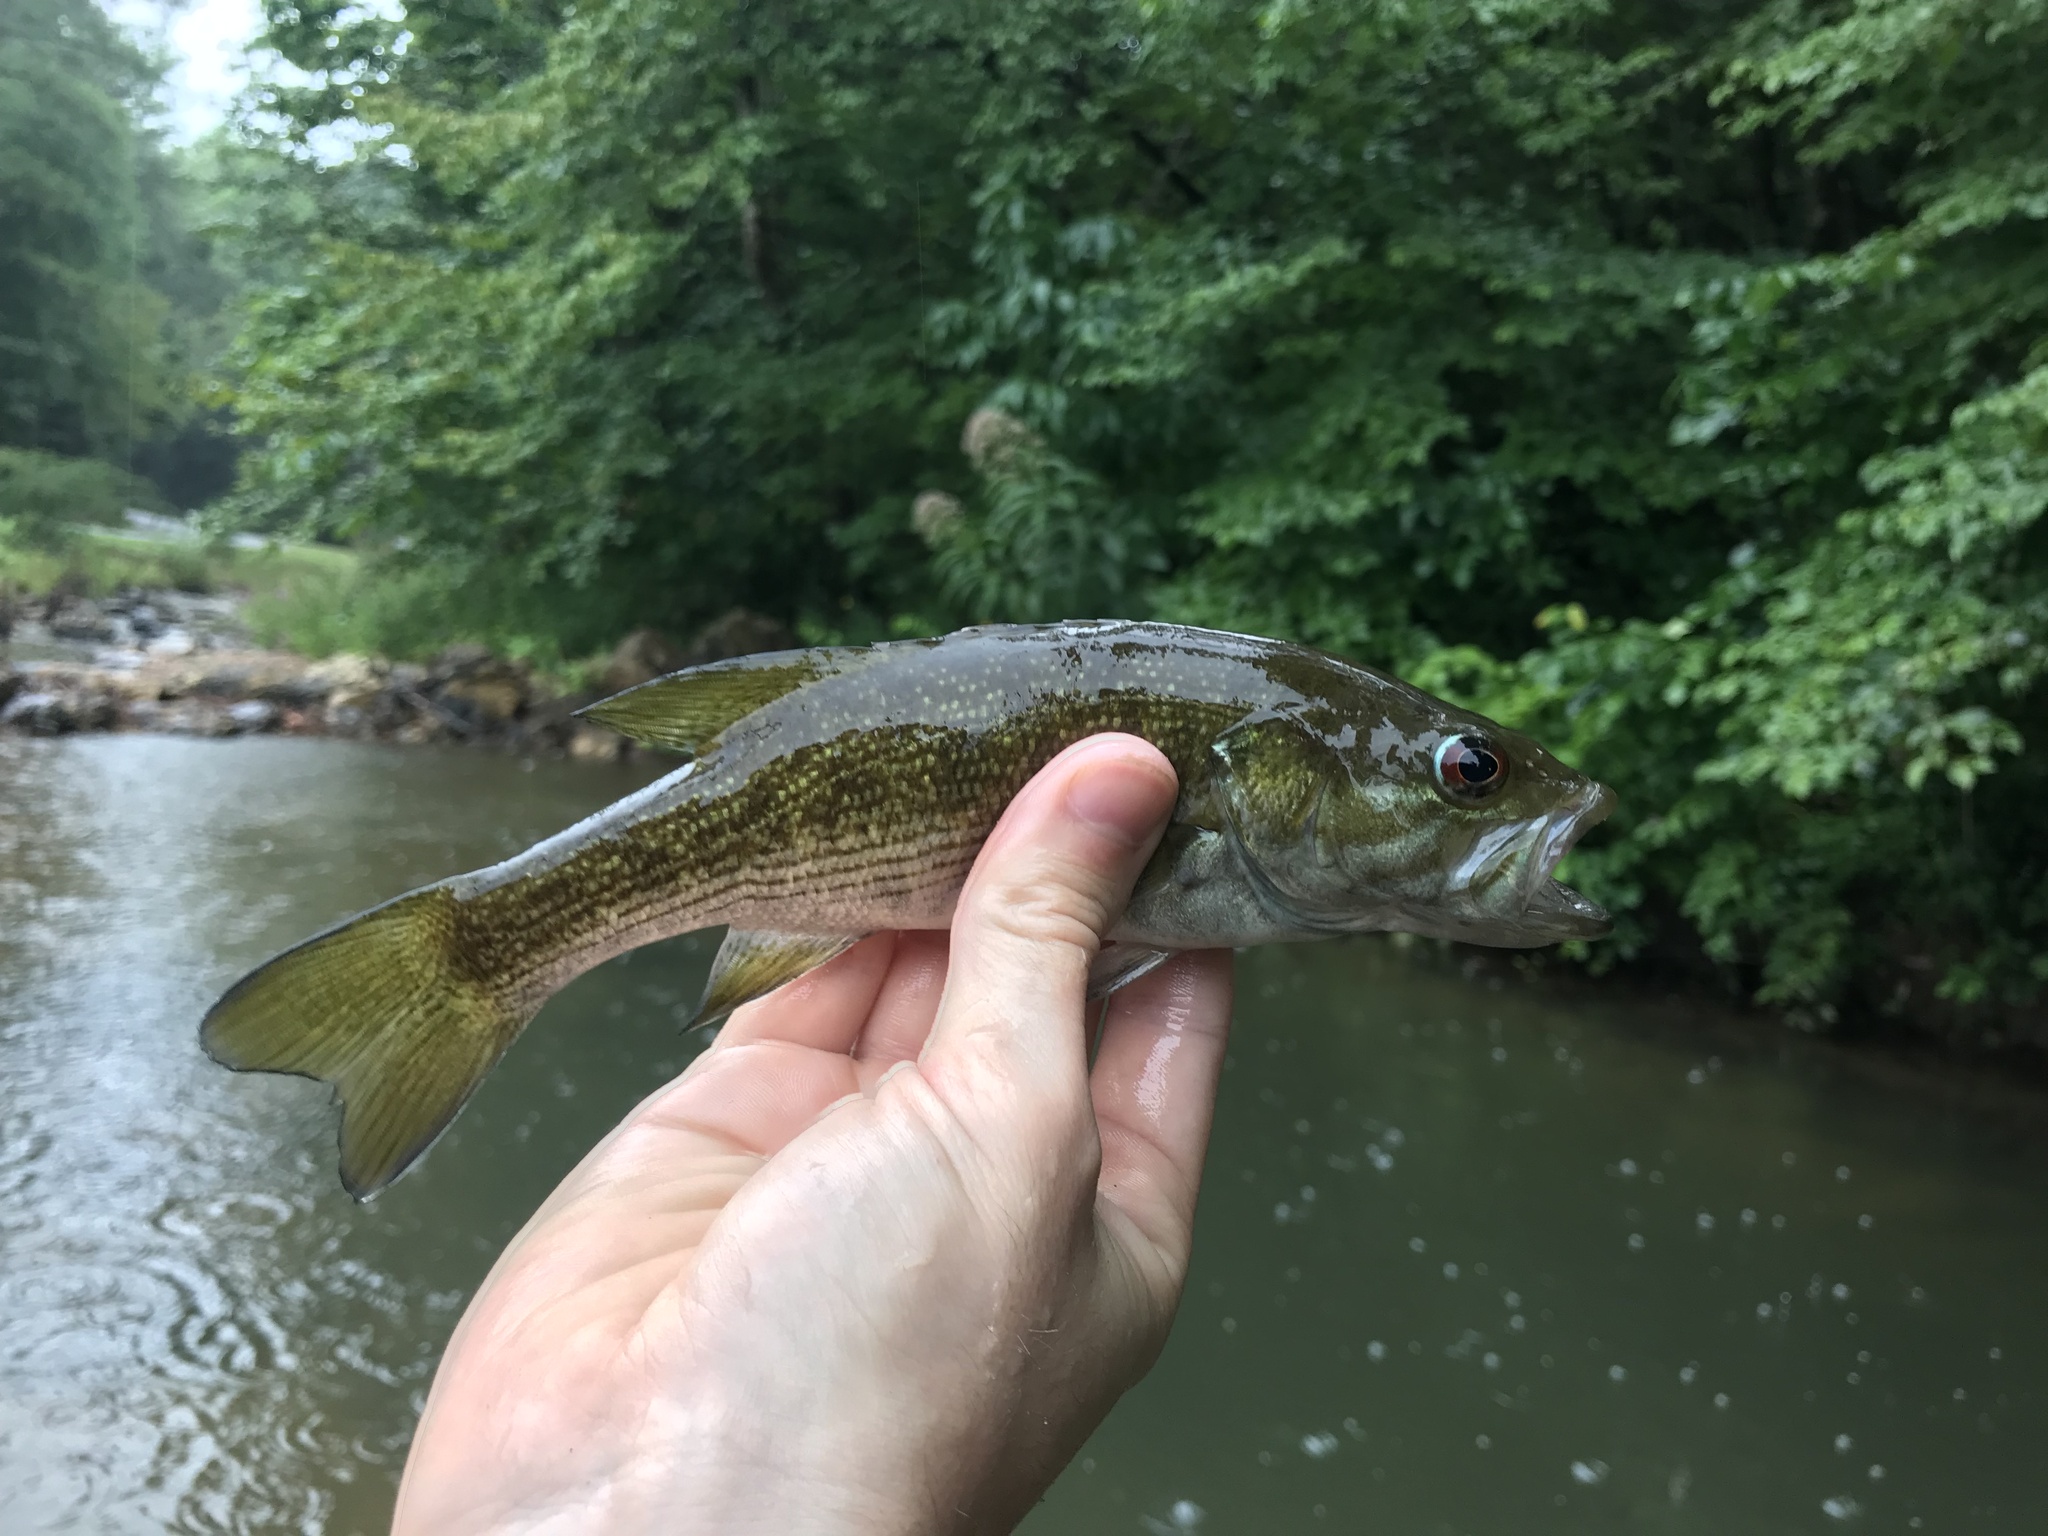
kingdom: Animalia
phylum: Chordata
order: Perciformes
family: Centrarchidae
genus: Micropterus
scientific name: Micropterus cahabae
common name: Cahaba bass
